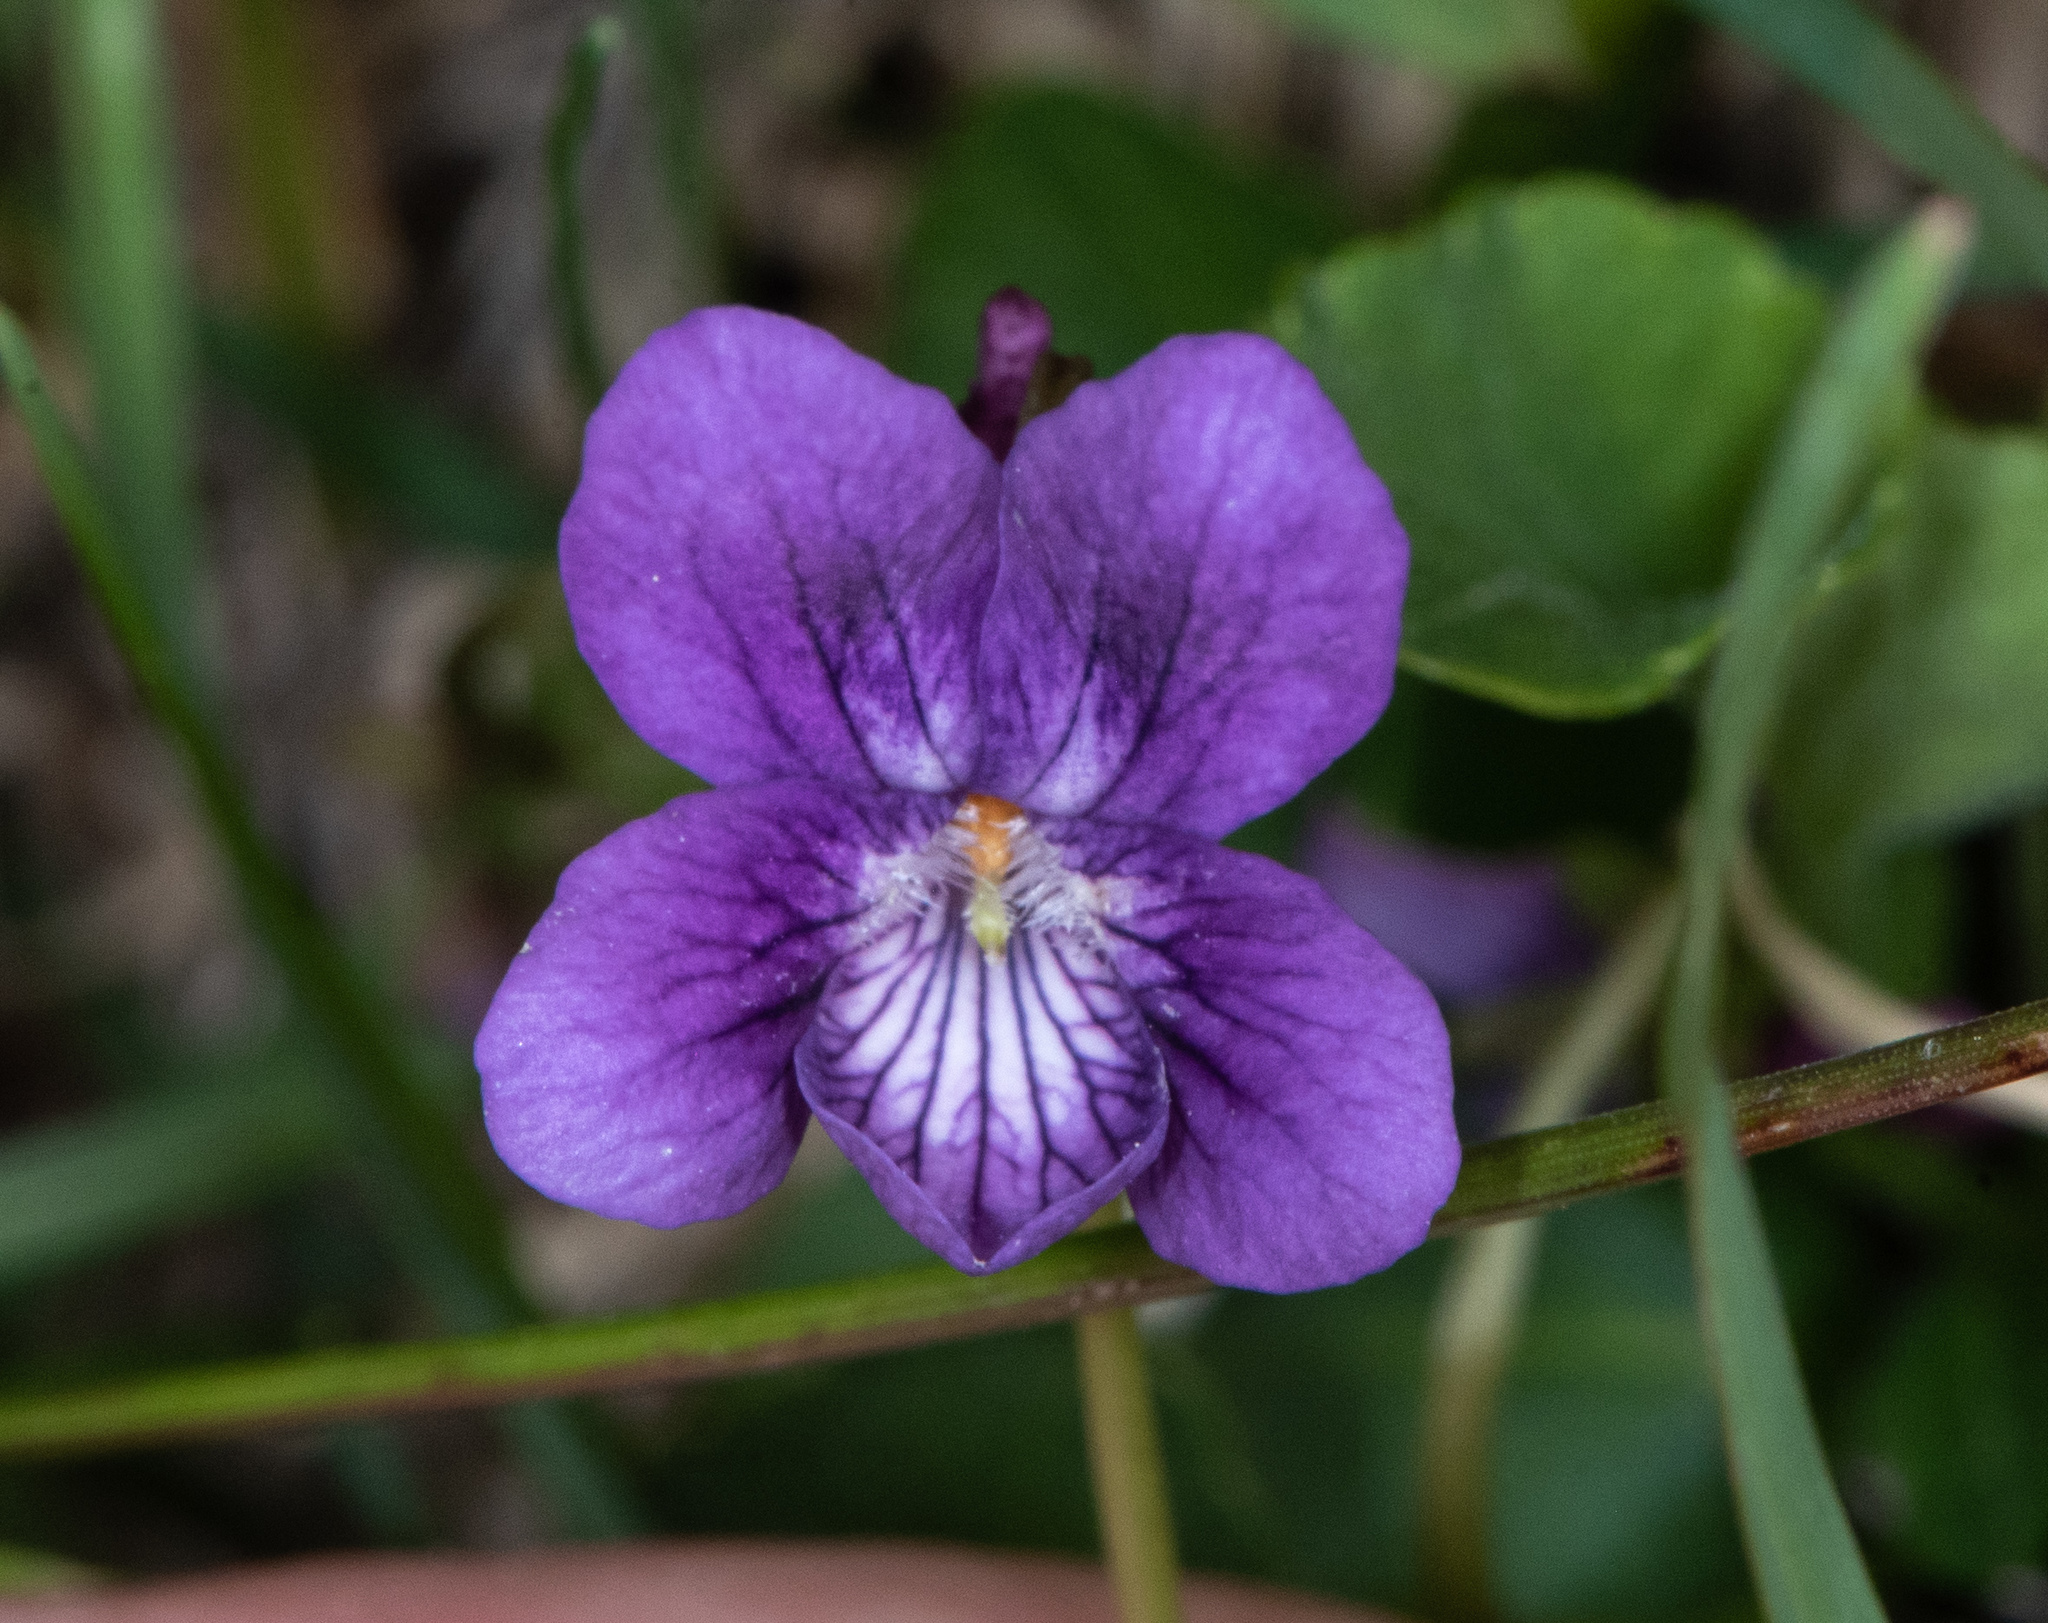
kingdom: Plantae
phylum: Tracheophyta
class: Magnoliopsida
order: Malpighiales
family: Violaceae
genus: Viola
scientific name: Viola adunca
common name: Sand violet
